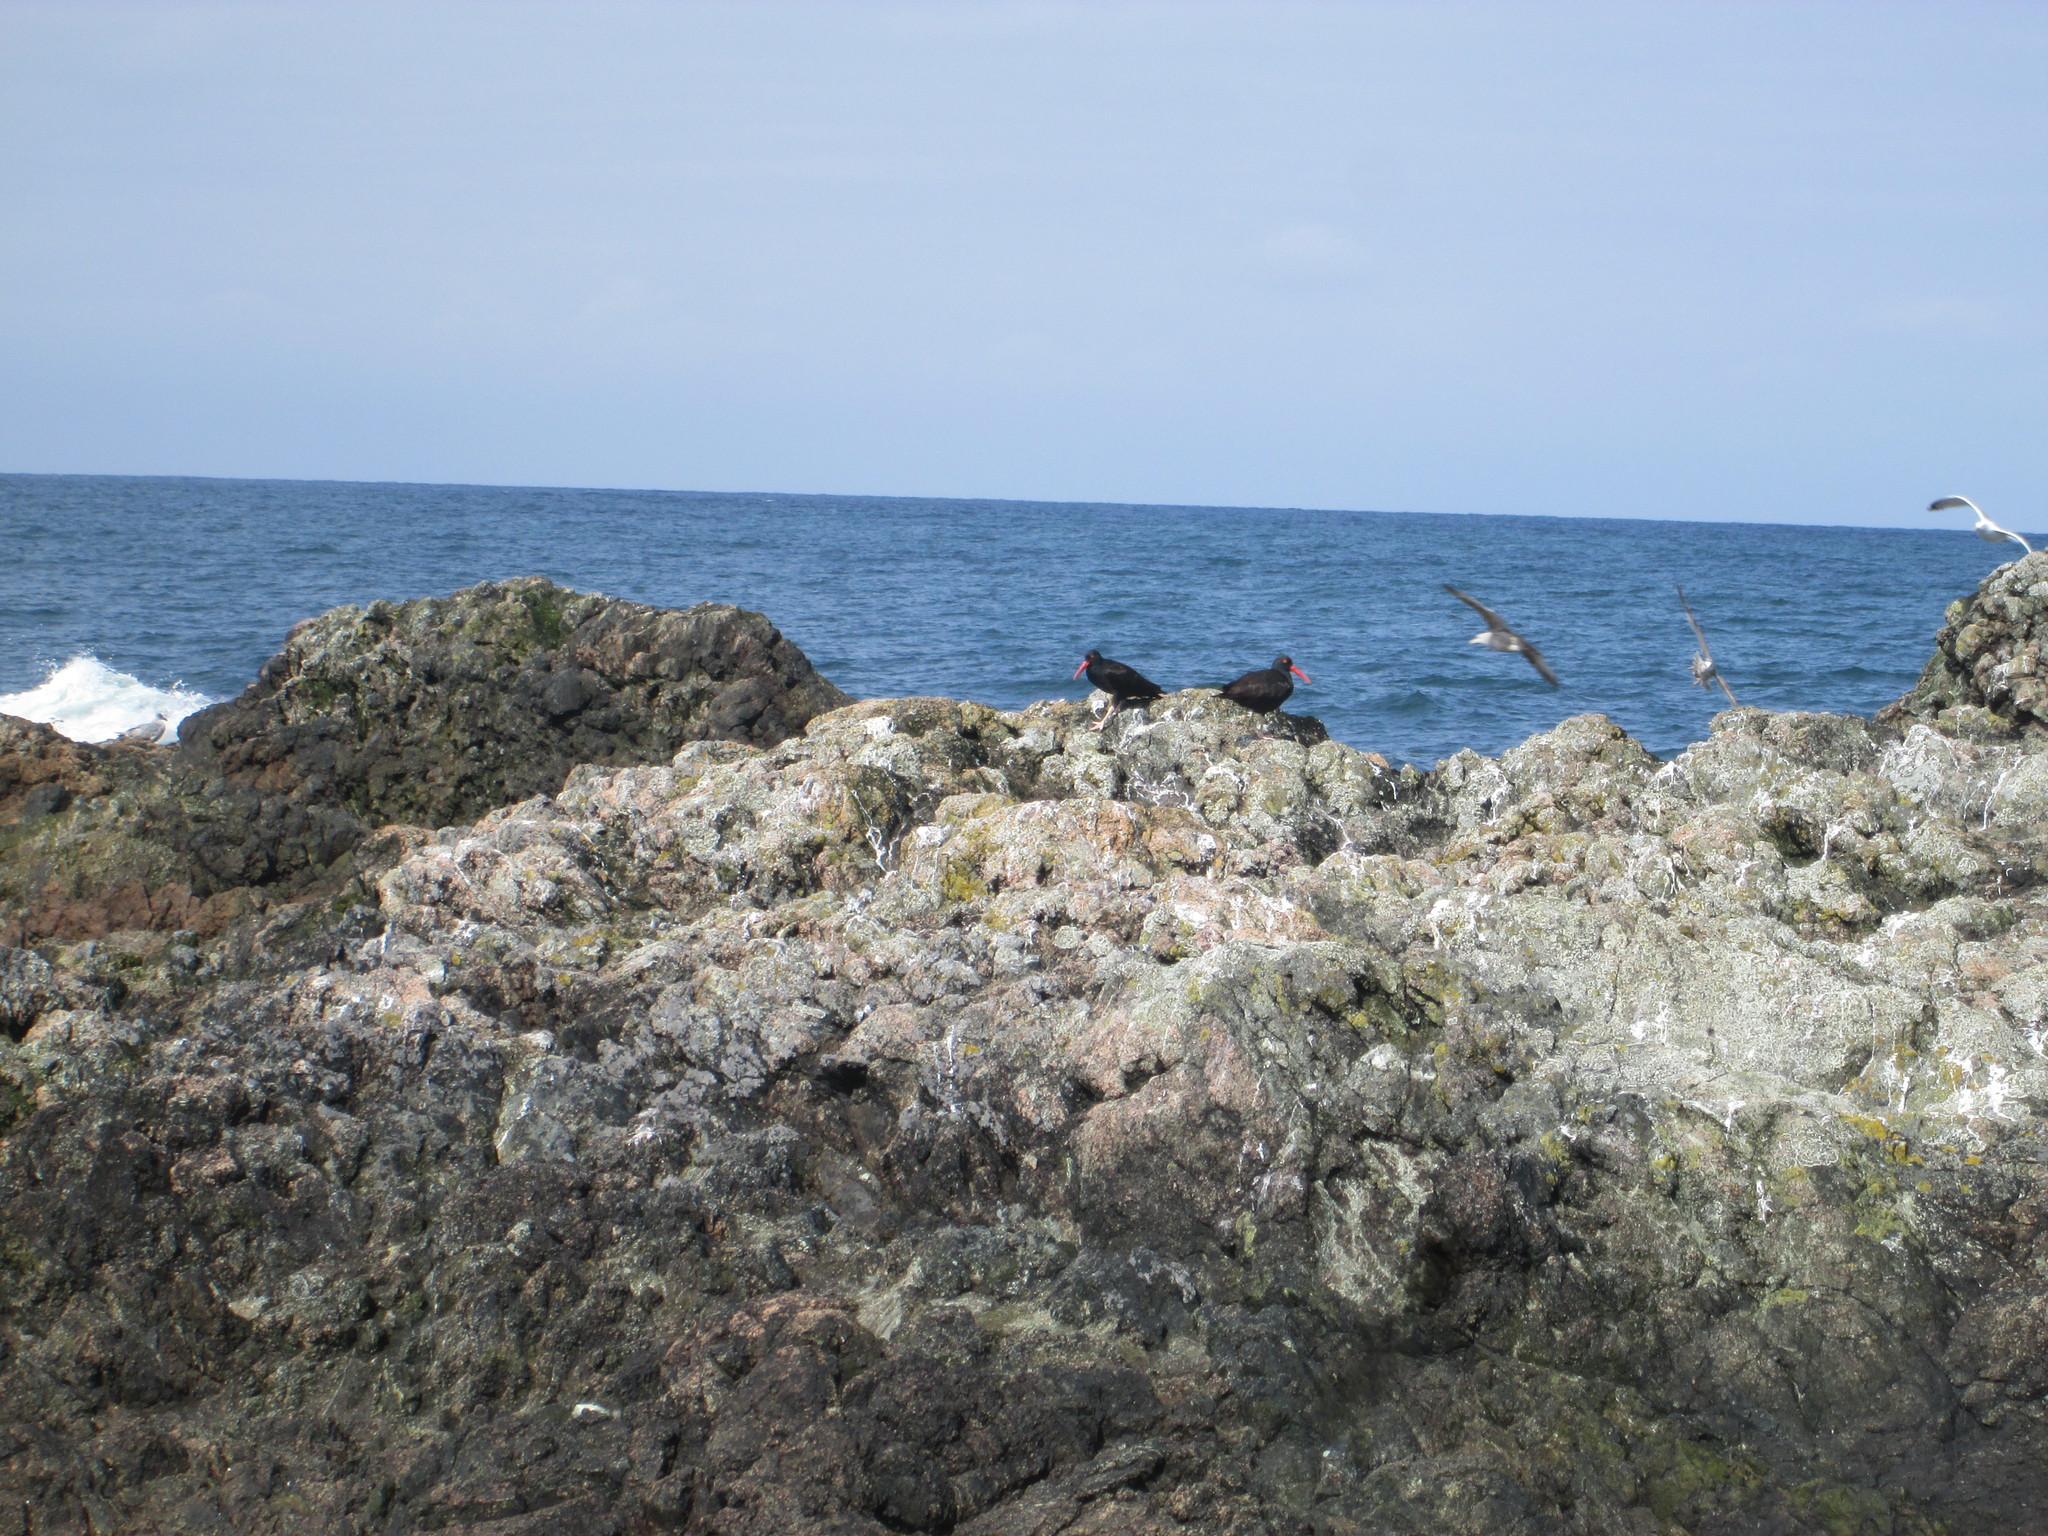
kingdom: Animalia
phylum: Chordata
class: Aves
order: Charadriiformes
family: Haematopodidae
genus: Haematopus
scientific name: Haematopus bachmani
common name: Black oystercatcher
